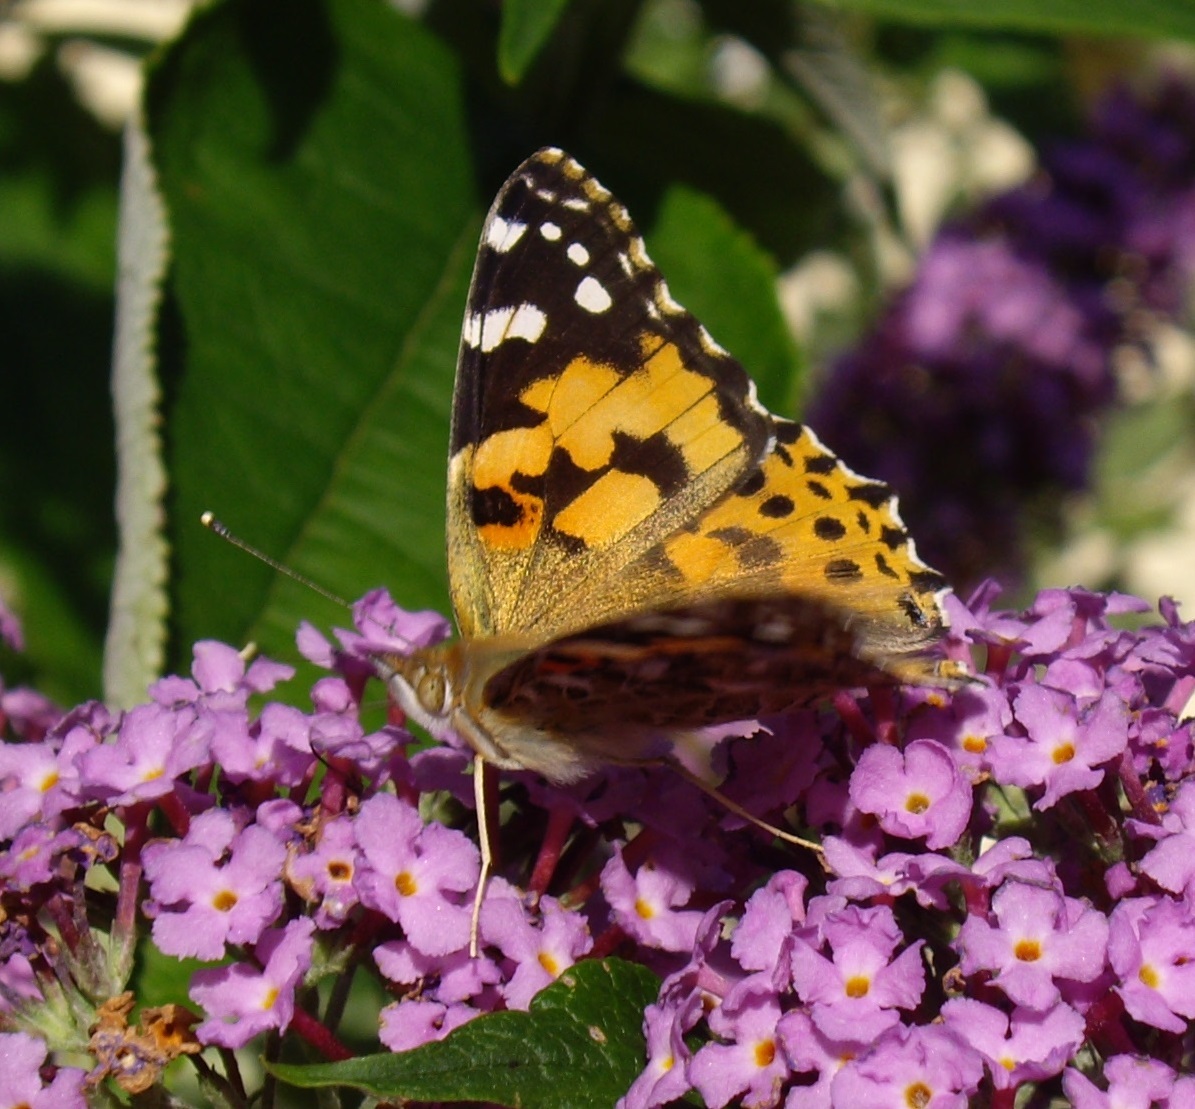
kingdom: Animalia
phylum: Arthropoda
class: Insecta
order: Lepidoptera
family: Nymphalidae
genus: Vanessa
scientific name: Vanessa cardui
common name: Painted lady
